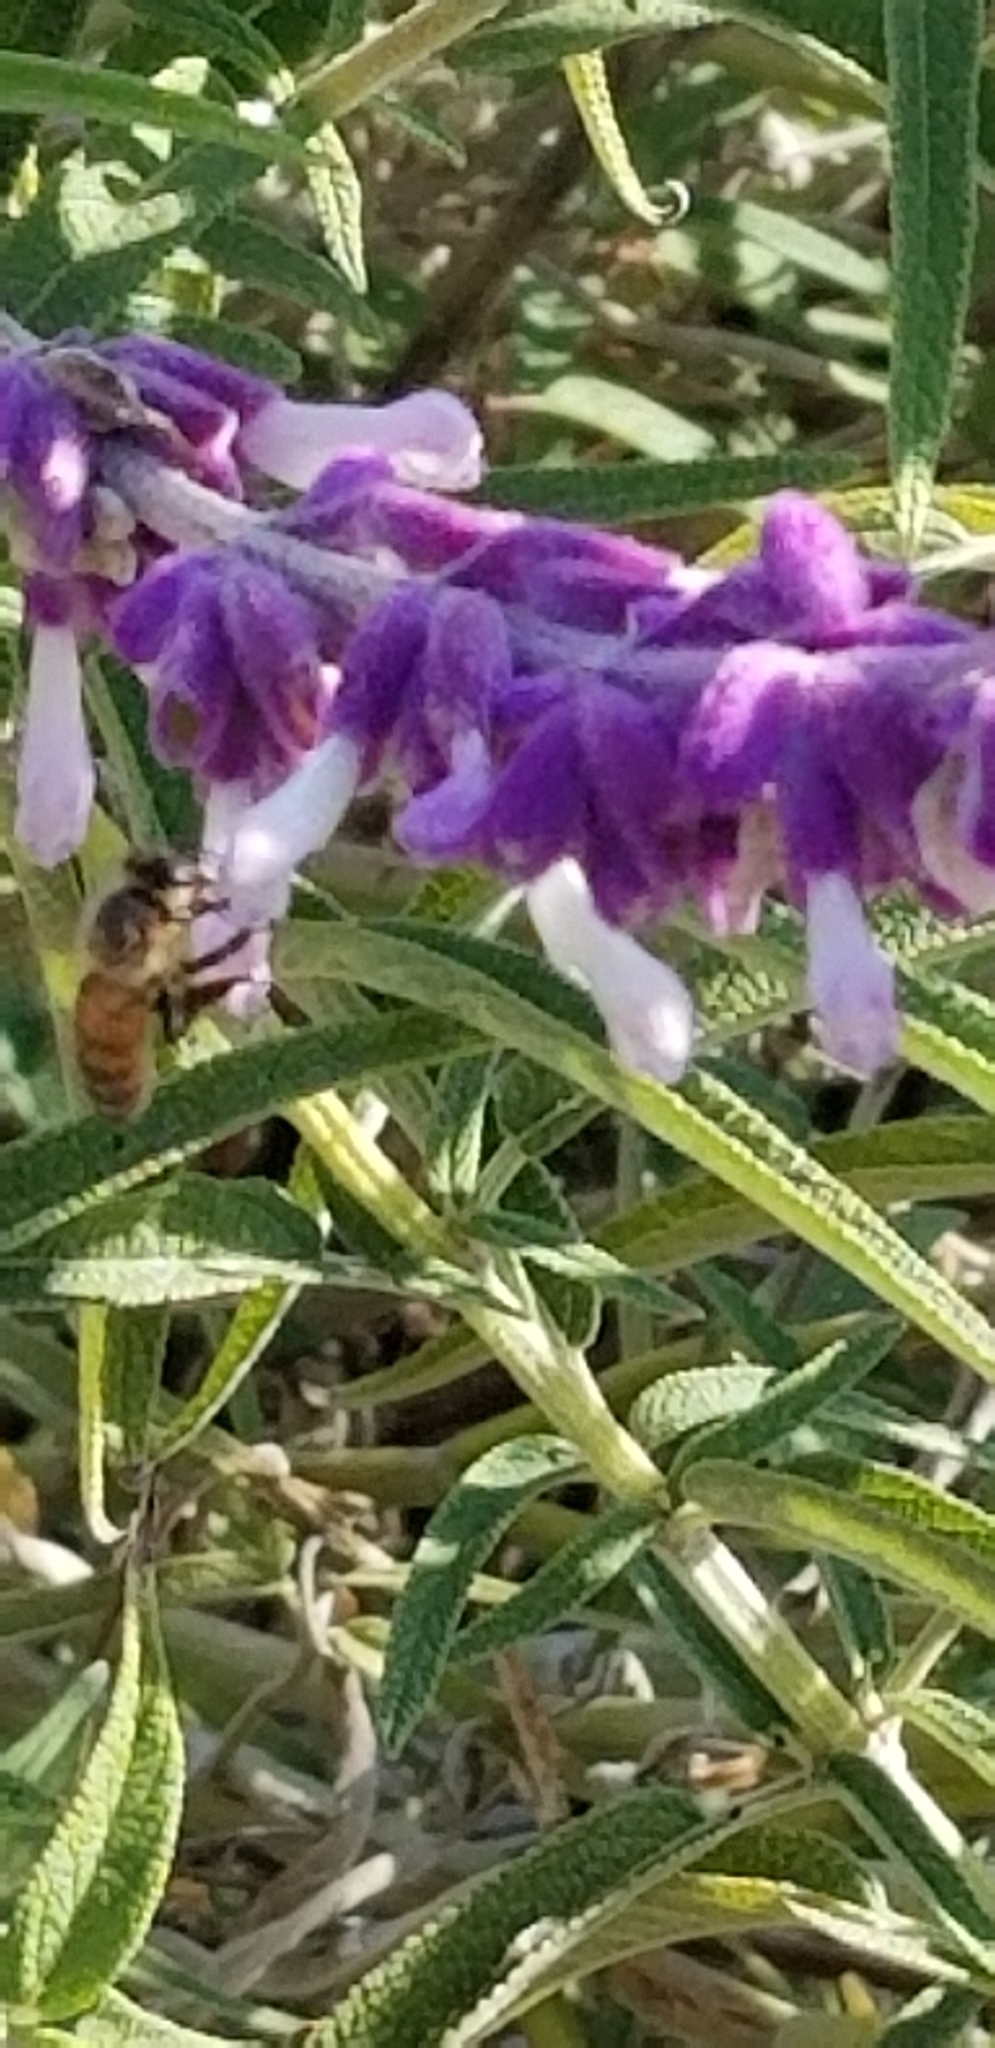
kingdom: Animalia
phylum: Arthropoda
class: Insecta
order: Hymenoptera
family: Apidae
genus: Apis
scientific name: Apis mellifera
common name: Honey bee
